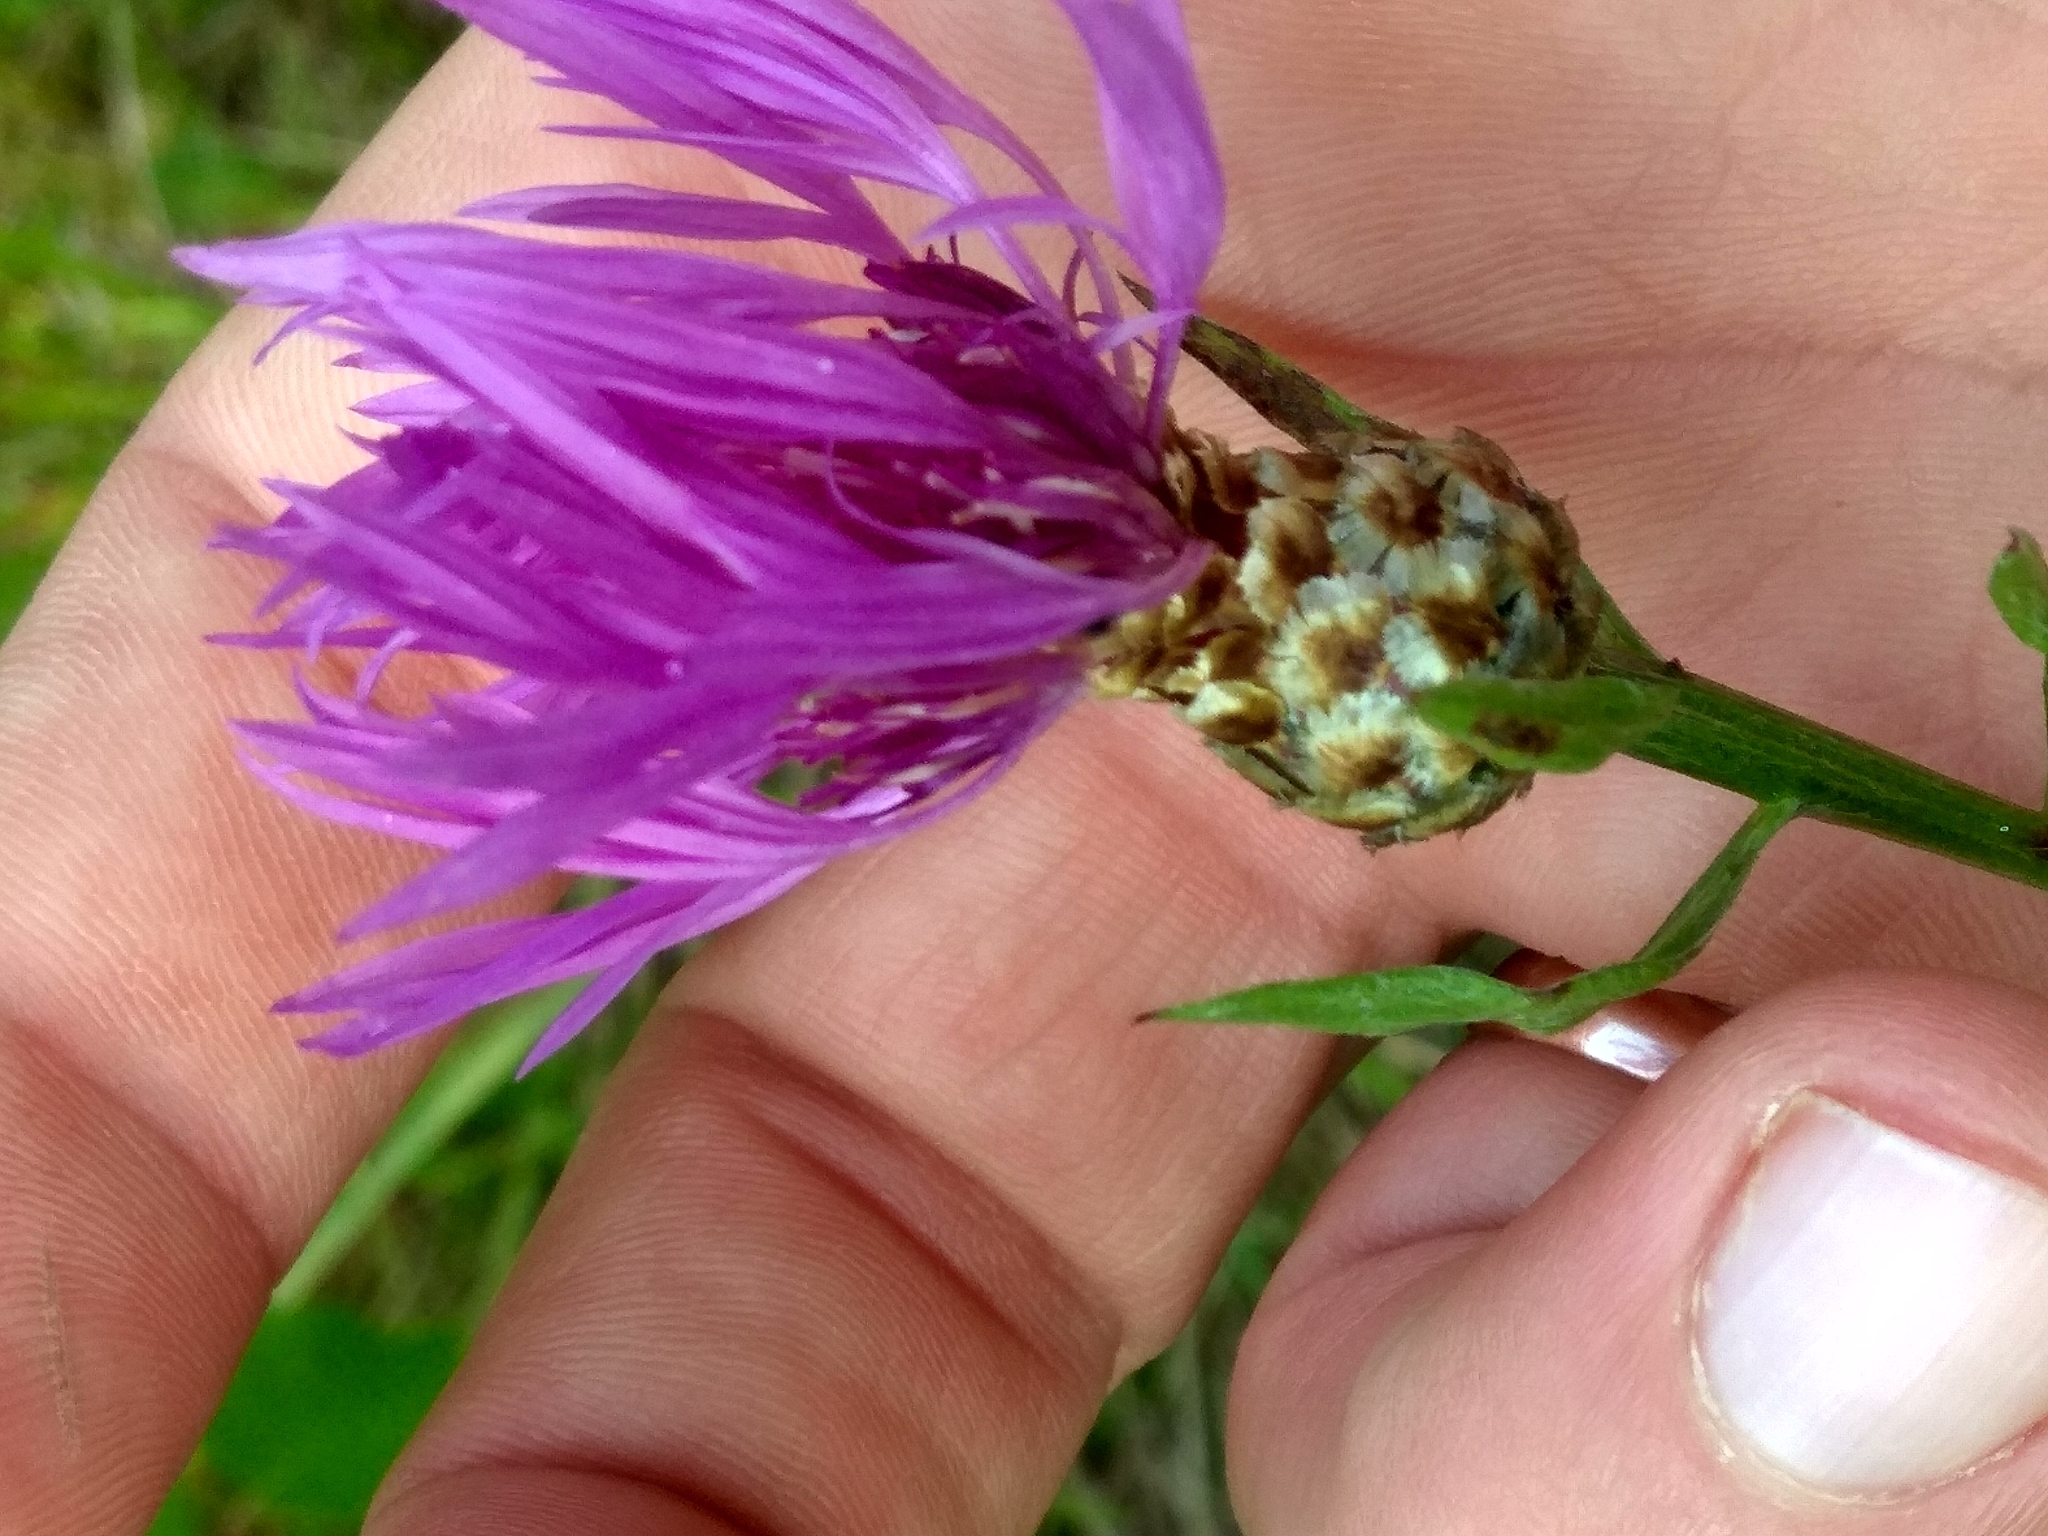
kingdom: Plantae
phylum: Tracheophyta
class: Magnoliopsida
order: Asterales
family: Asteraceae
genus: Centaurea
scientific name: Centaurea jacea
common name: Brown knapweed
